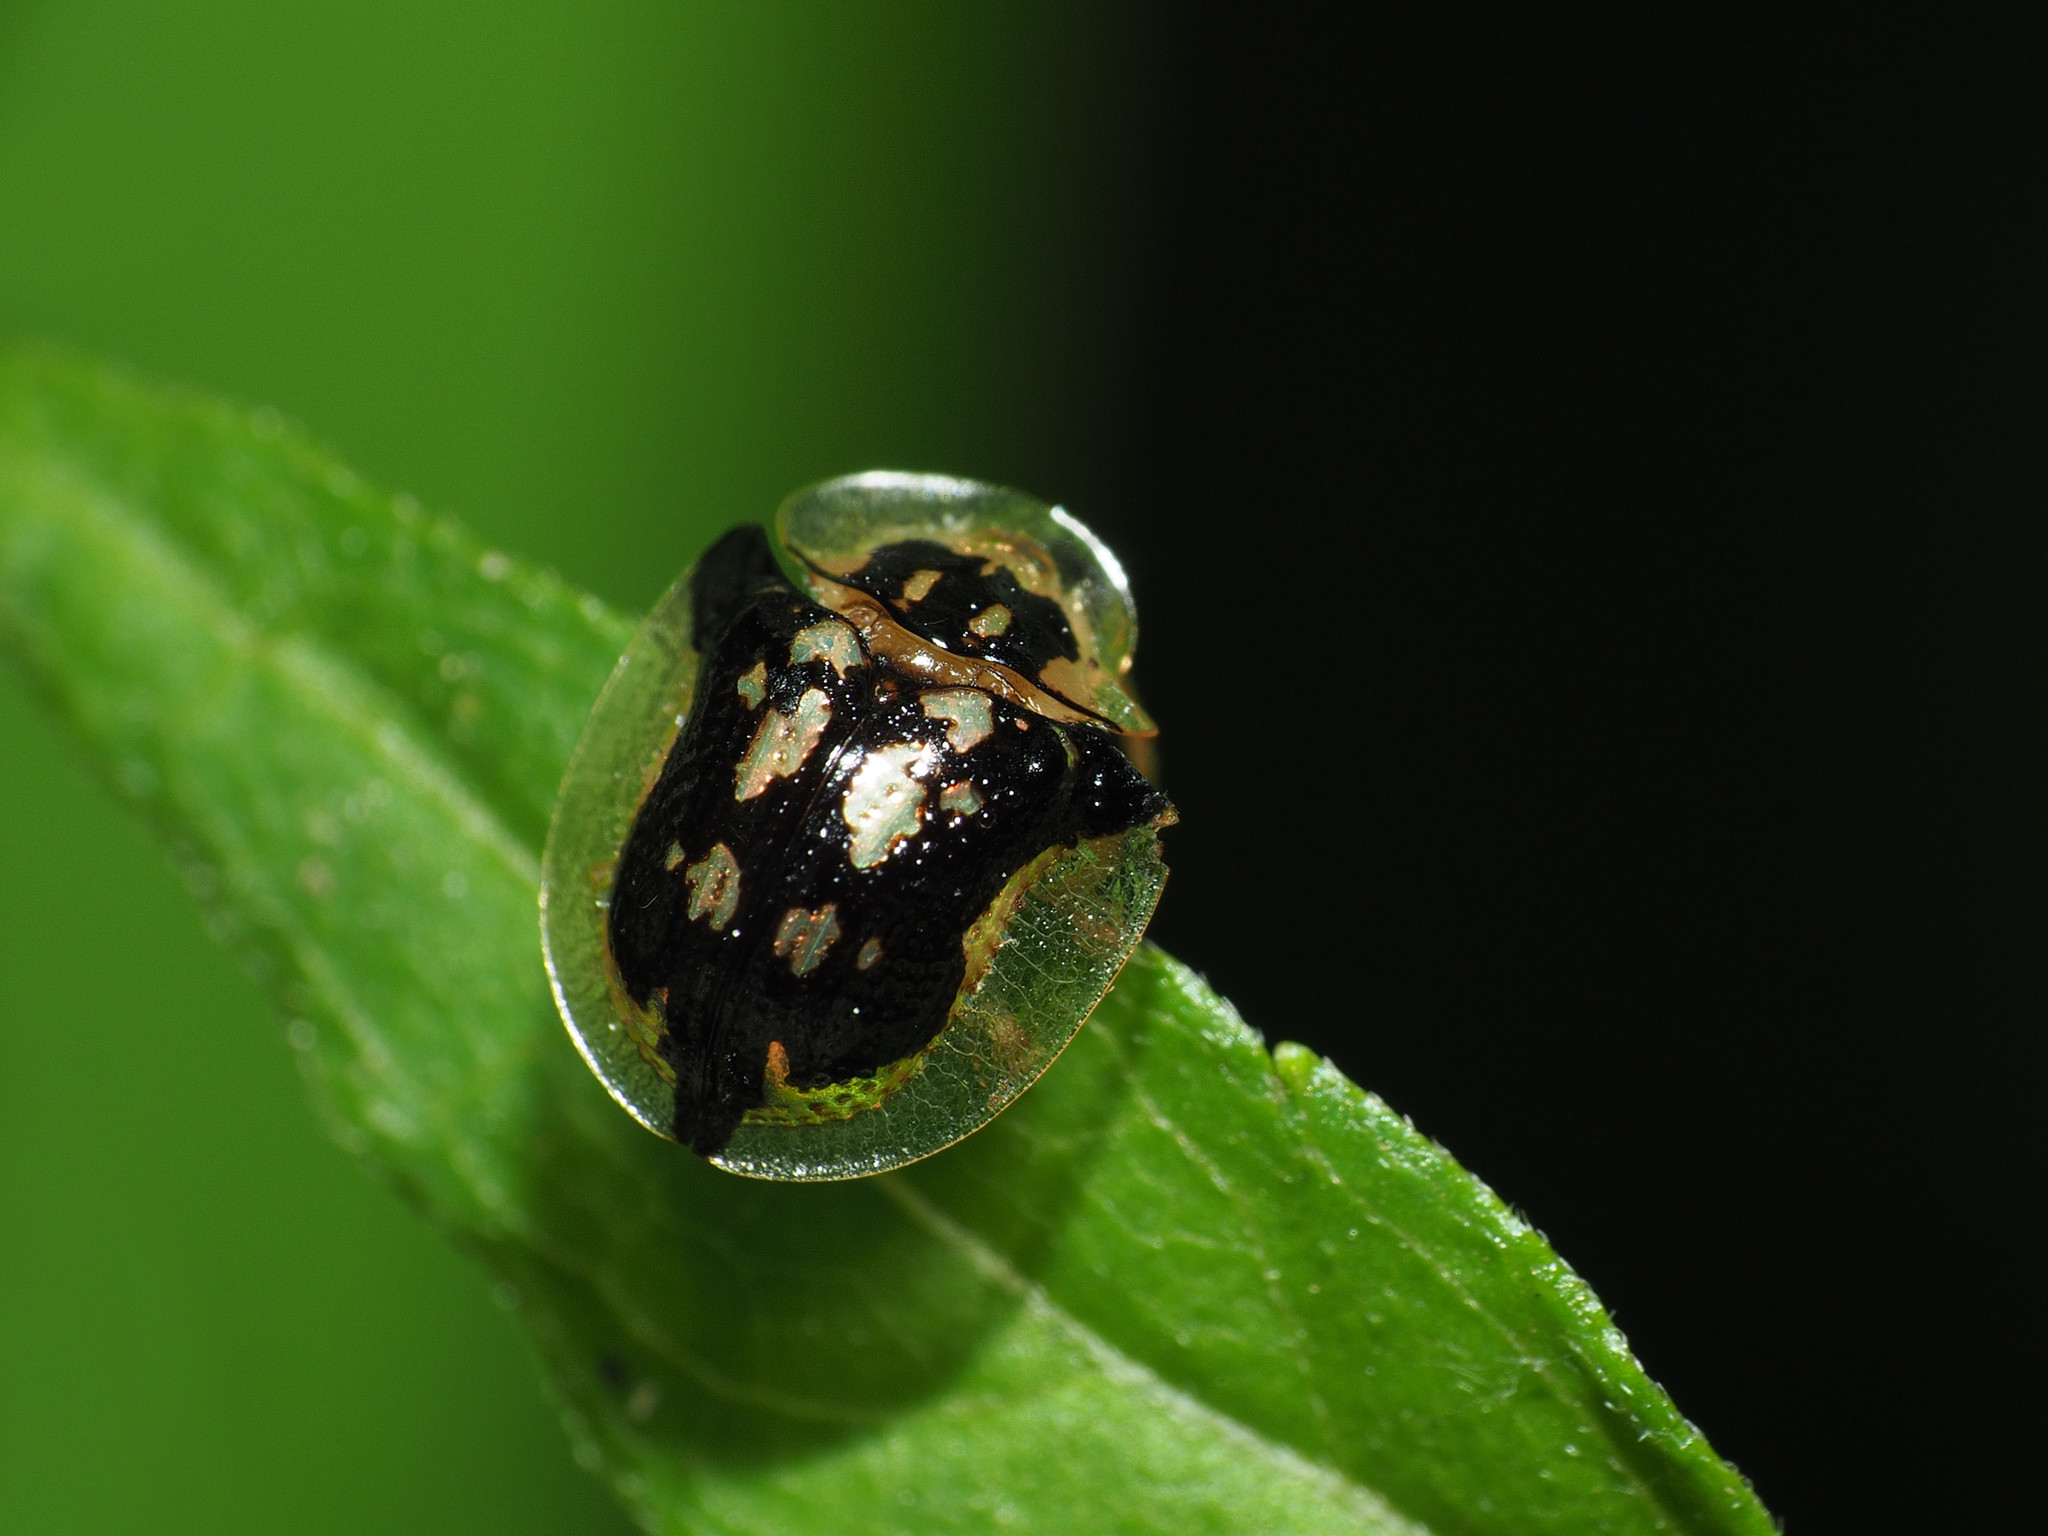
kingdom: Animalia
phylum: Arthropoda
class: Insecta
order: Coleoptera
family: Chrysomelidae
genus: Deloyala
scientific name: Deloyala guttata
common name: Mottled tortoise beetle
